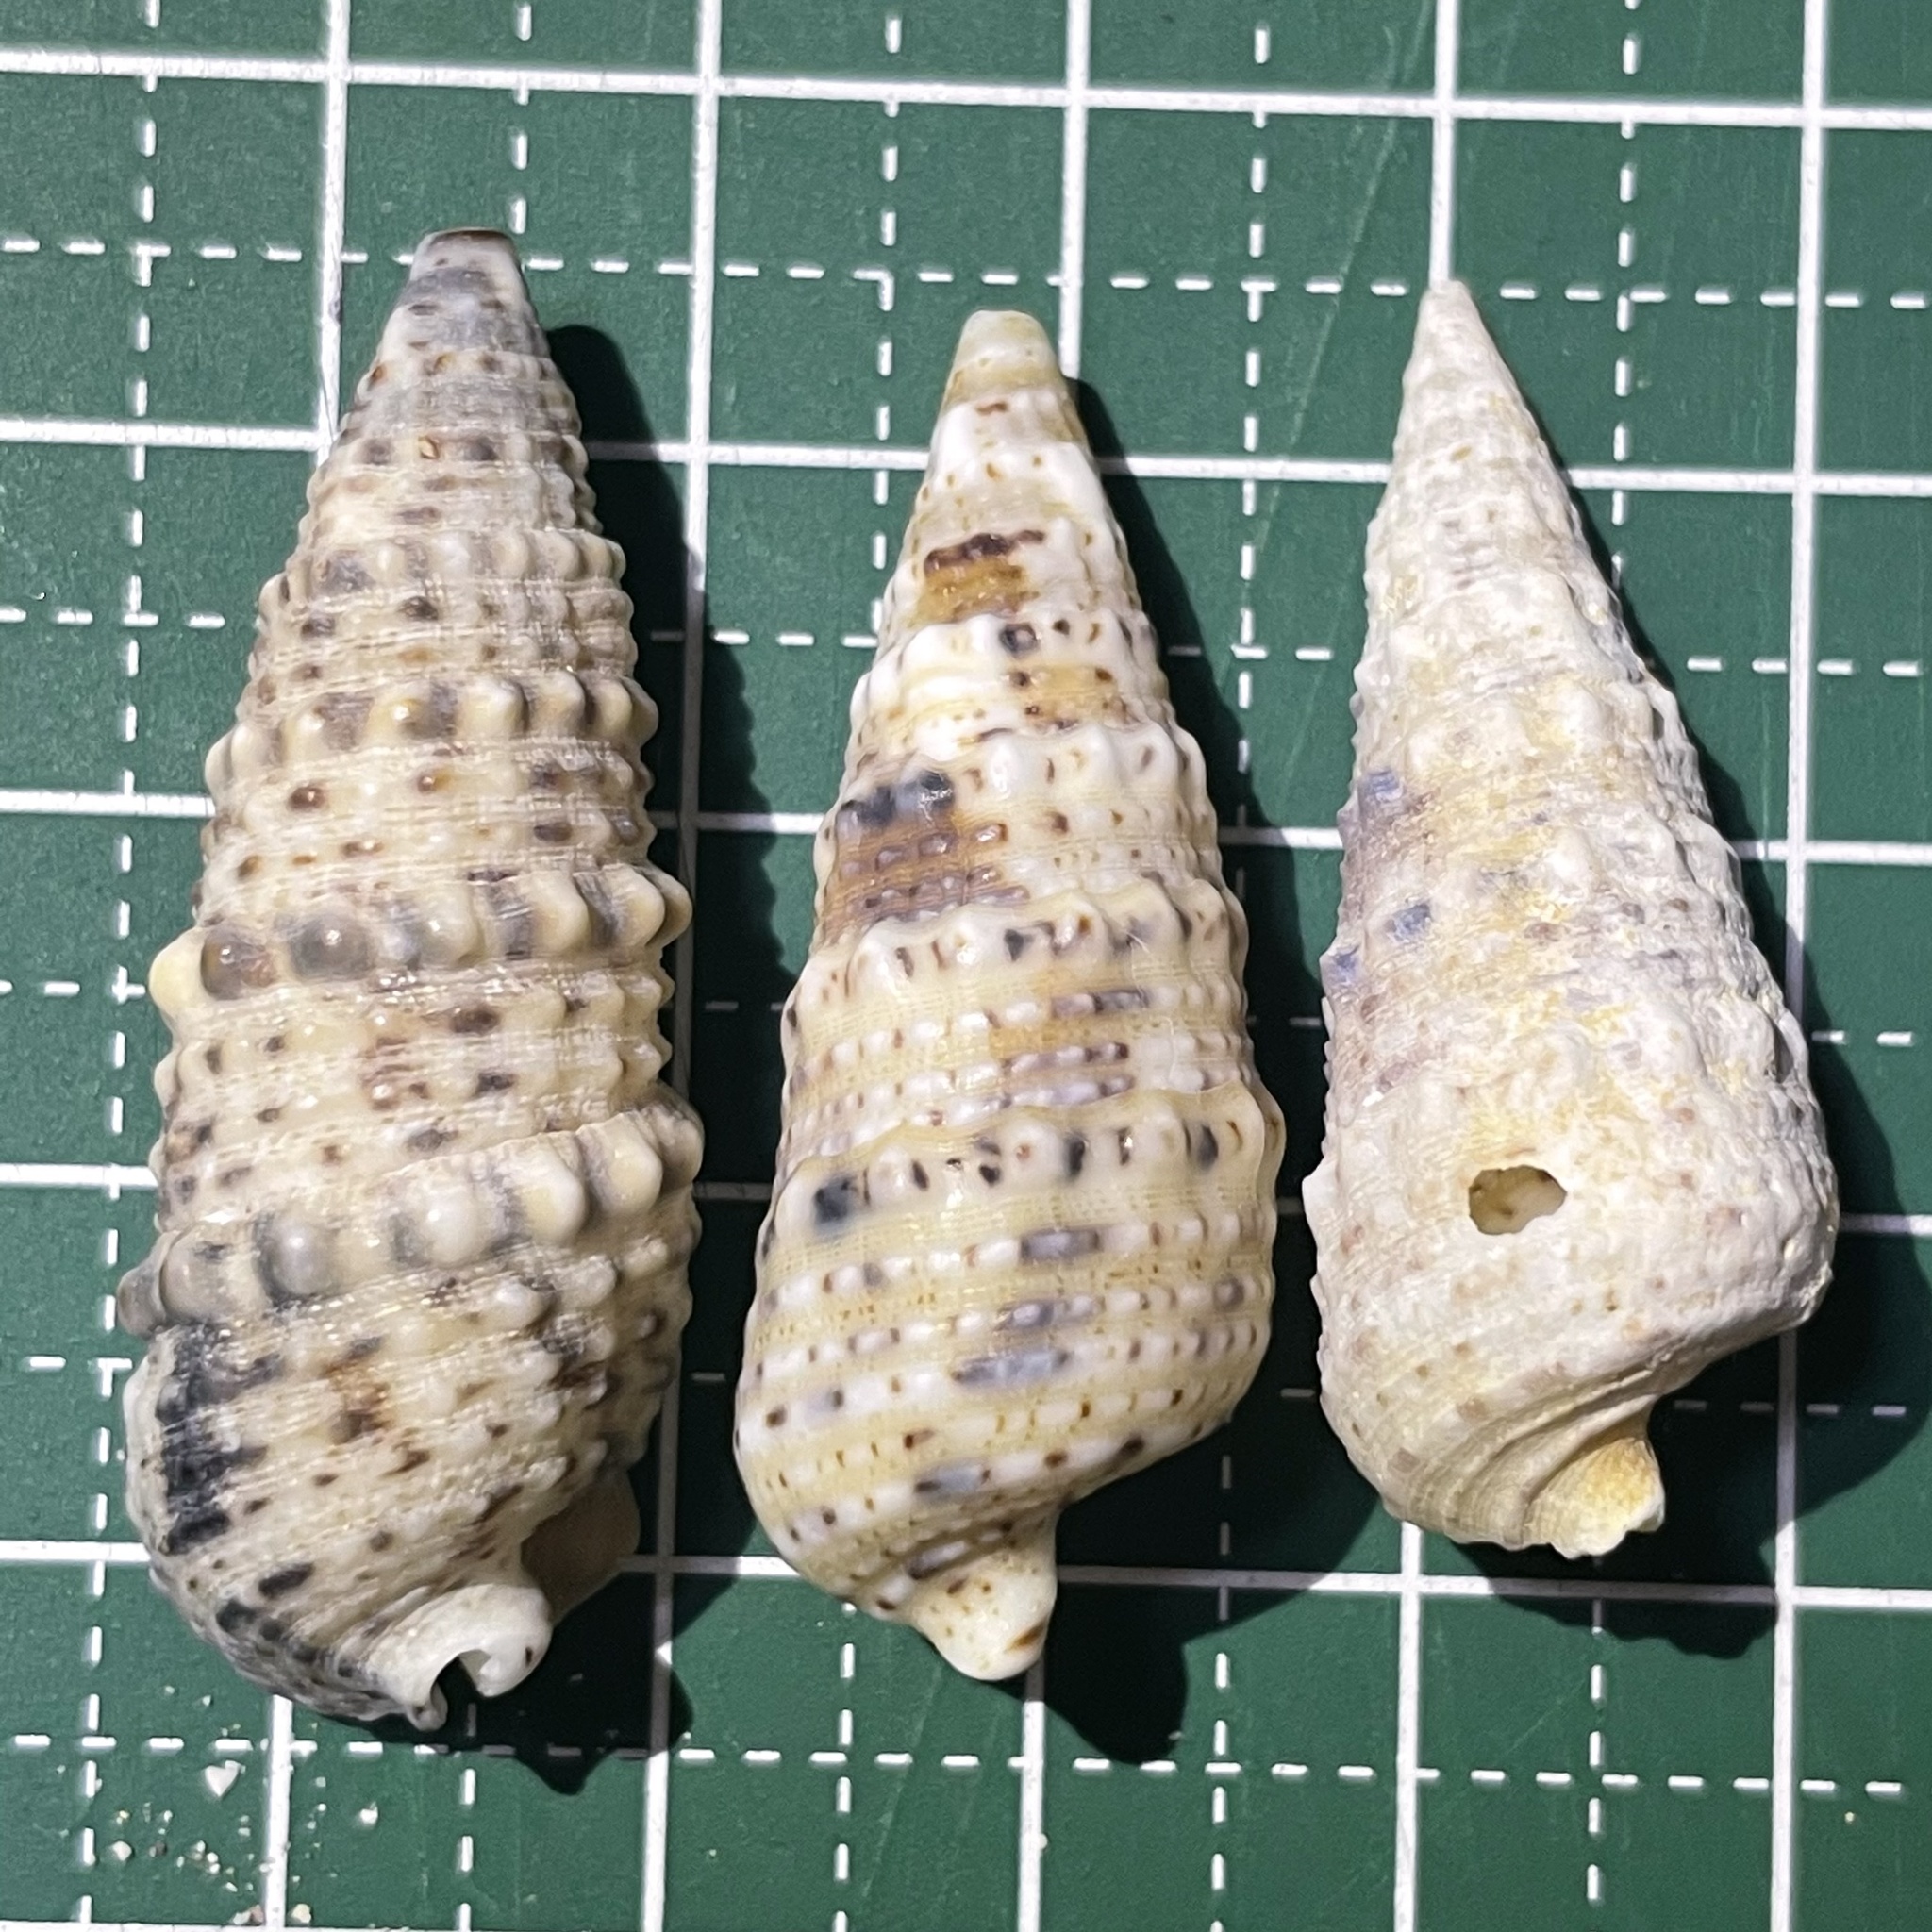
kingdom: Animalia
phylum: Mollusca
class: Gastropoda
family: Cerithiidae
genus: Rhinoclavis
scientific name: Rhinoclavis sinensis
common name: Knobbled horn shell
